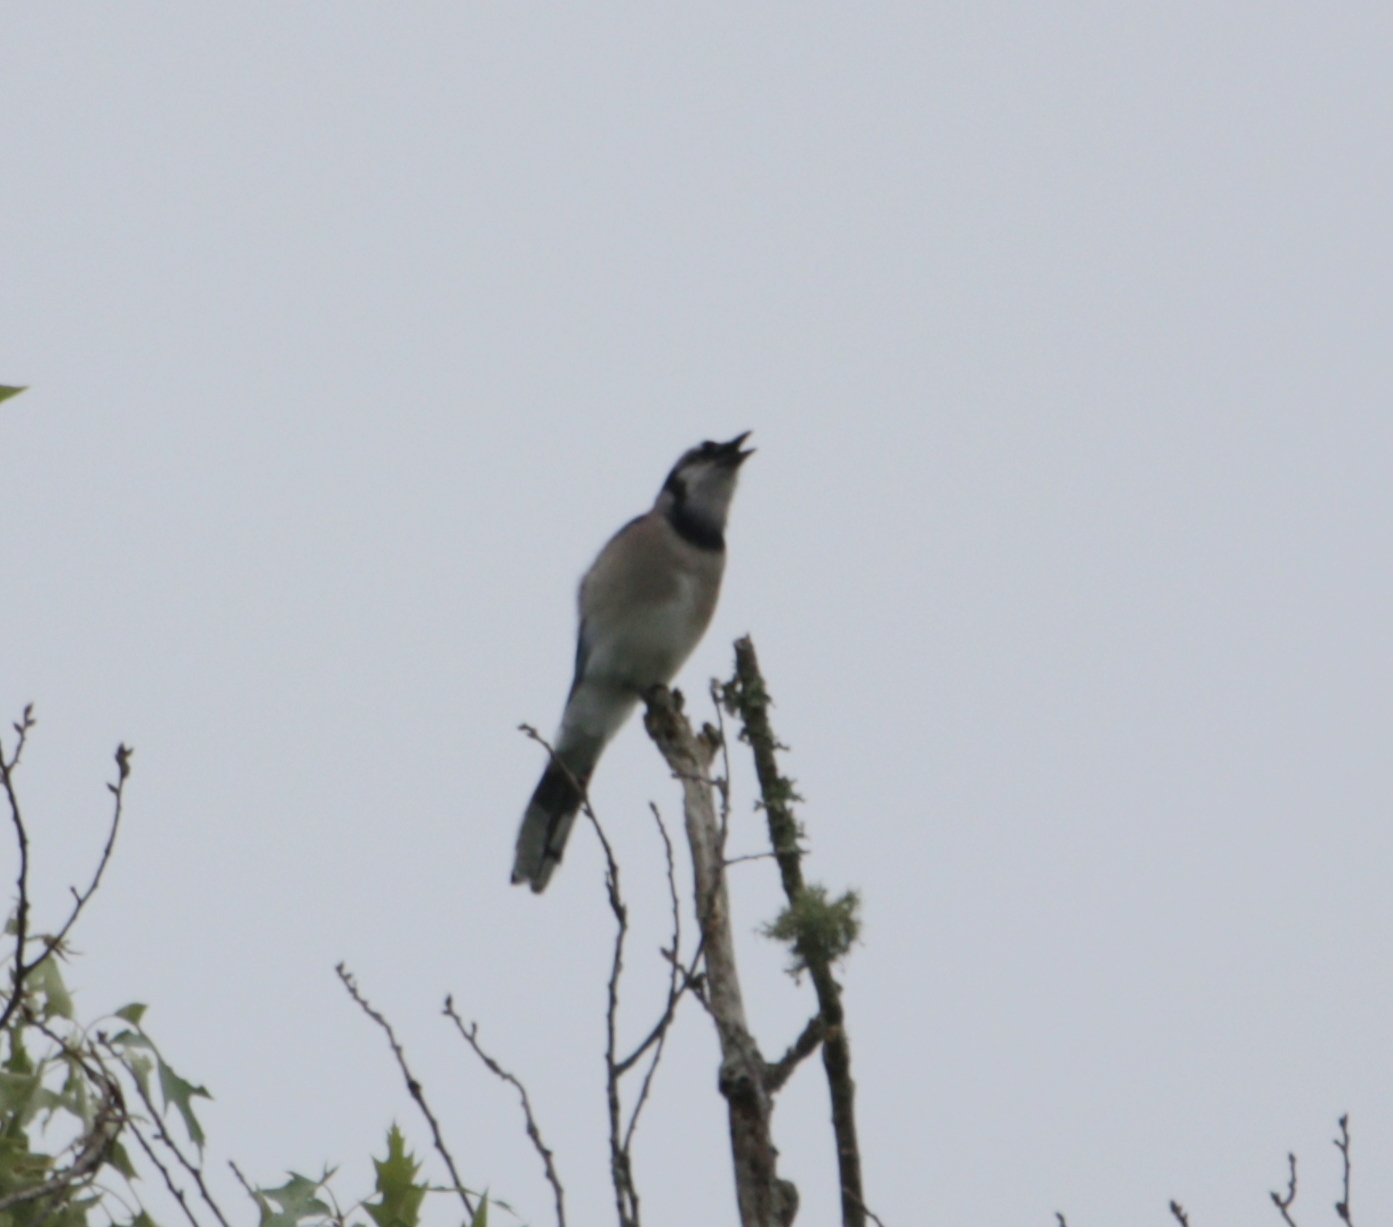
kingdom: Animalia
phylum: Chordata
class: Aves
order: Passeriformes
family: Corvidae
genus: Cyanocitta
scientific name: Cyanocitta cristata
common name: Blue jay
